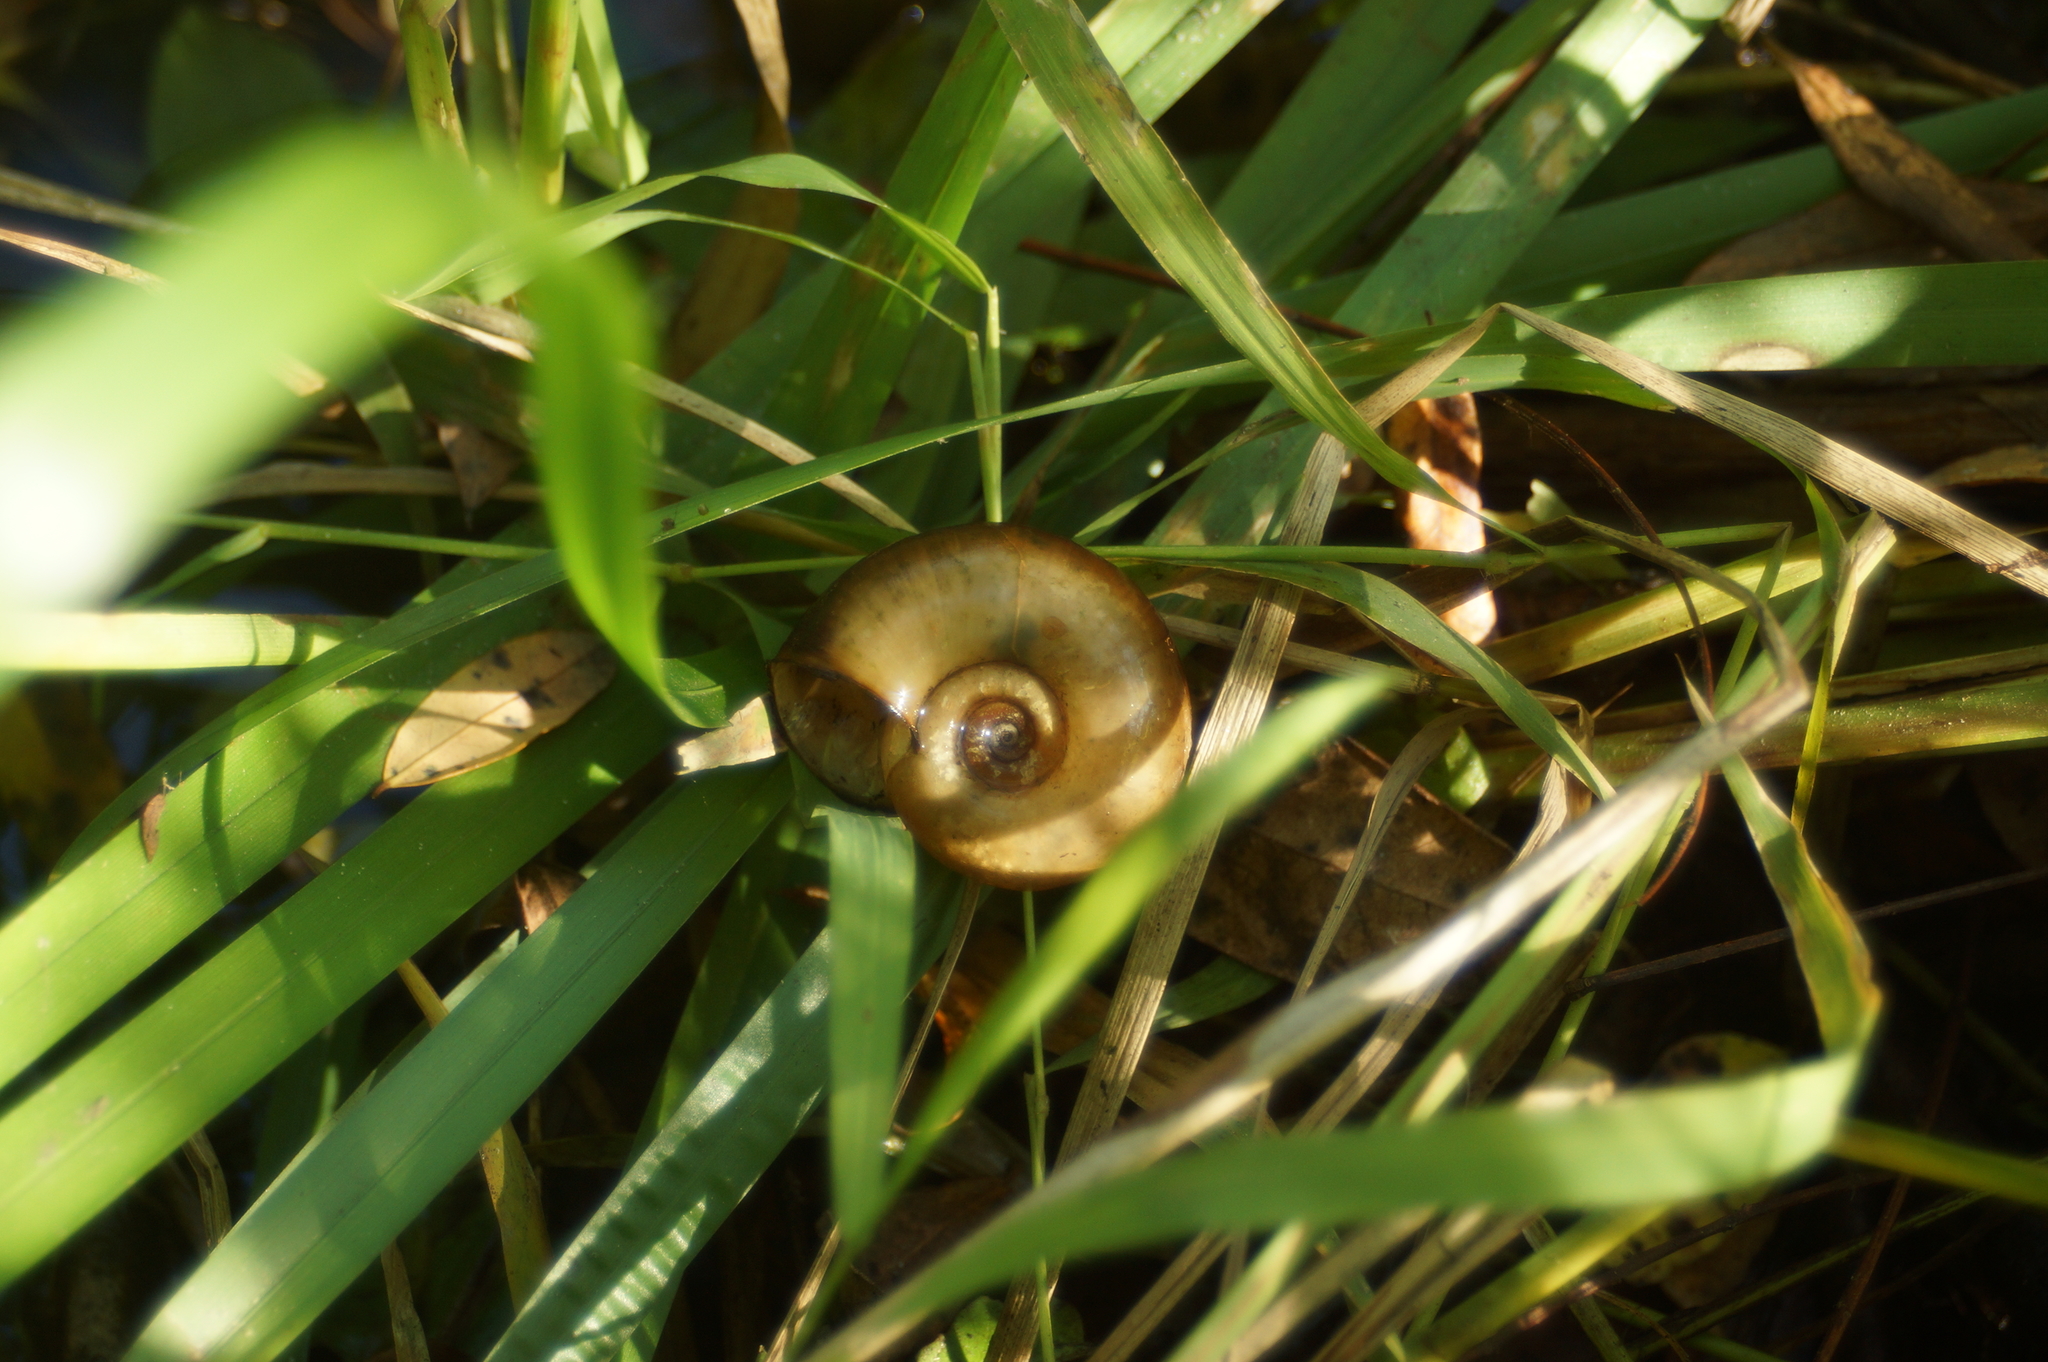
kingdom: Animalia
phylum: Mollusca
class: Gastropoda
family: Planorbidae
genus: Planorbarius
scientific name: Planorbarius corneus
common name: Great ramshorn
